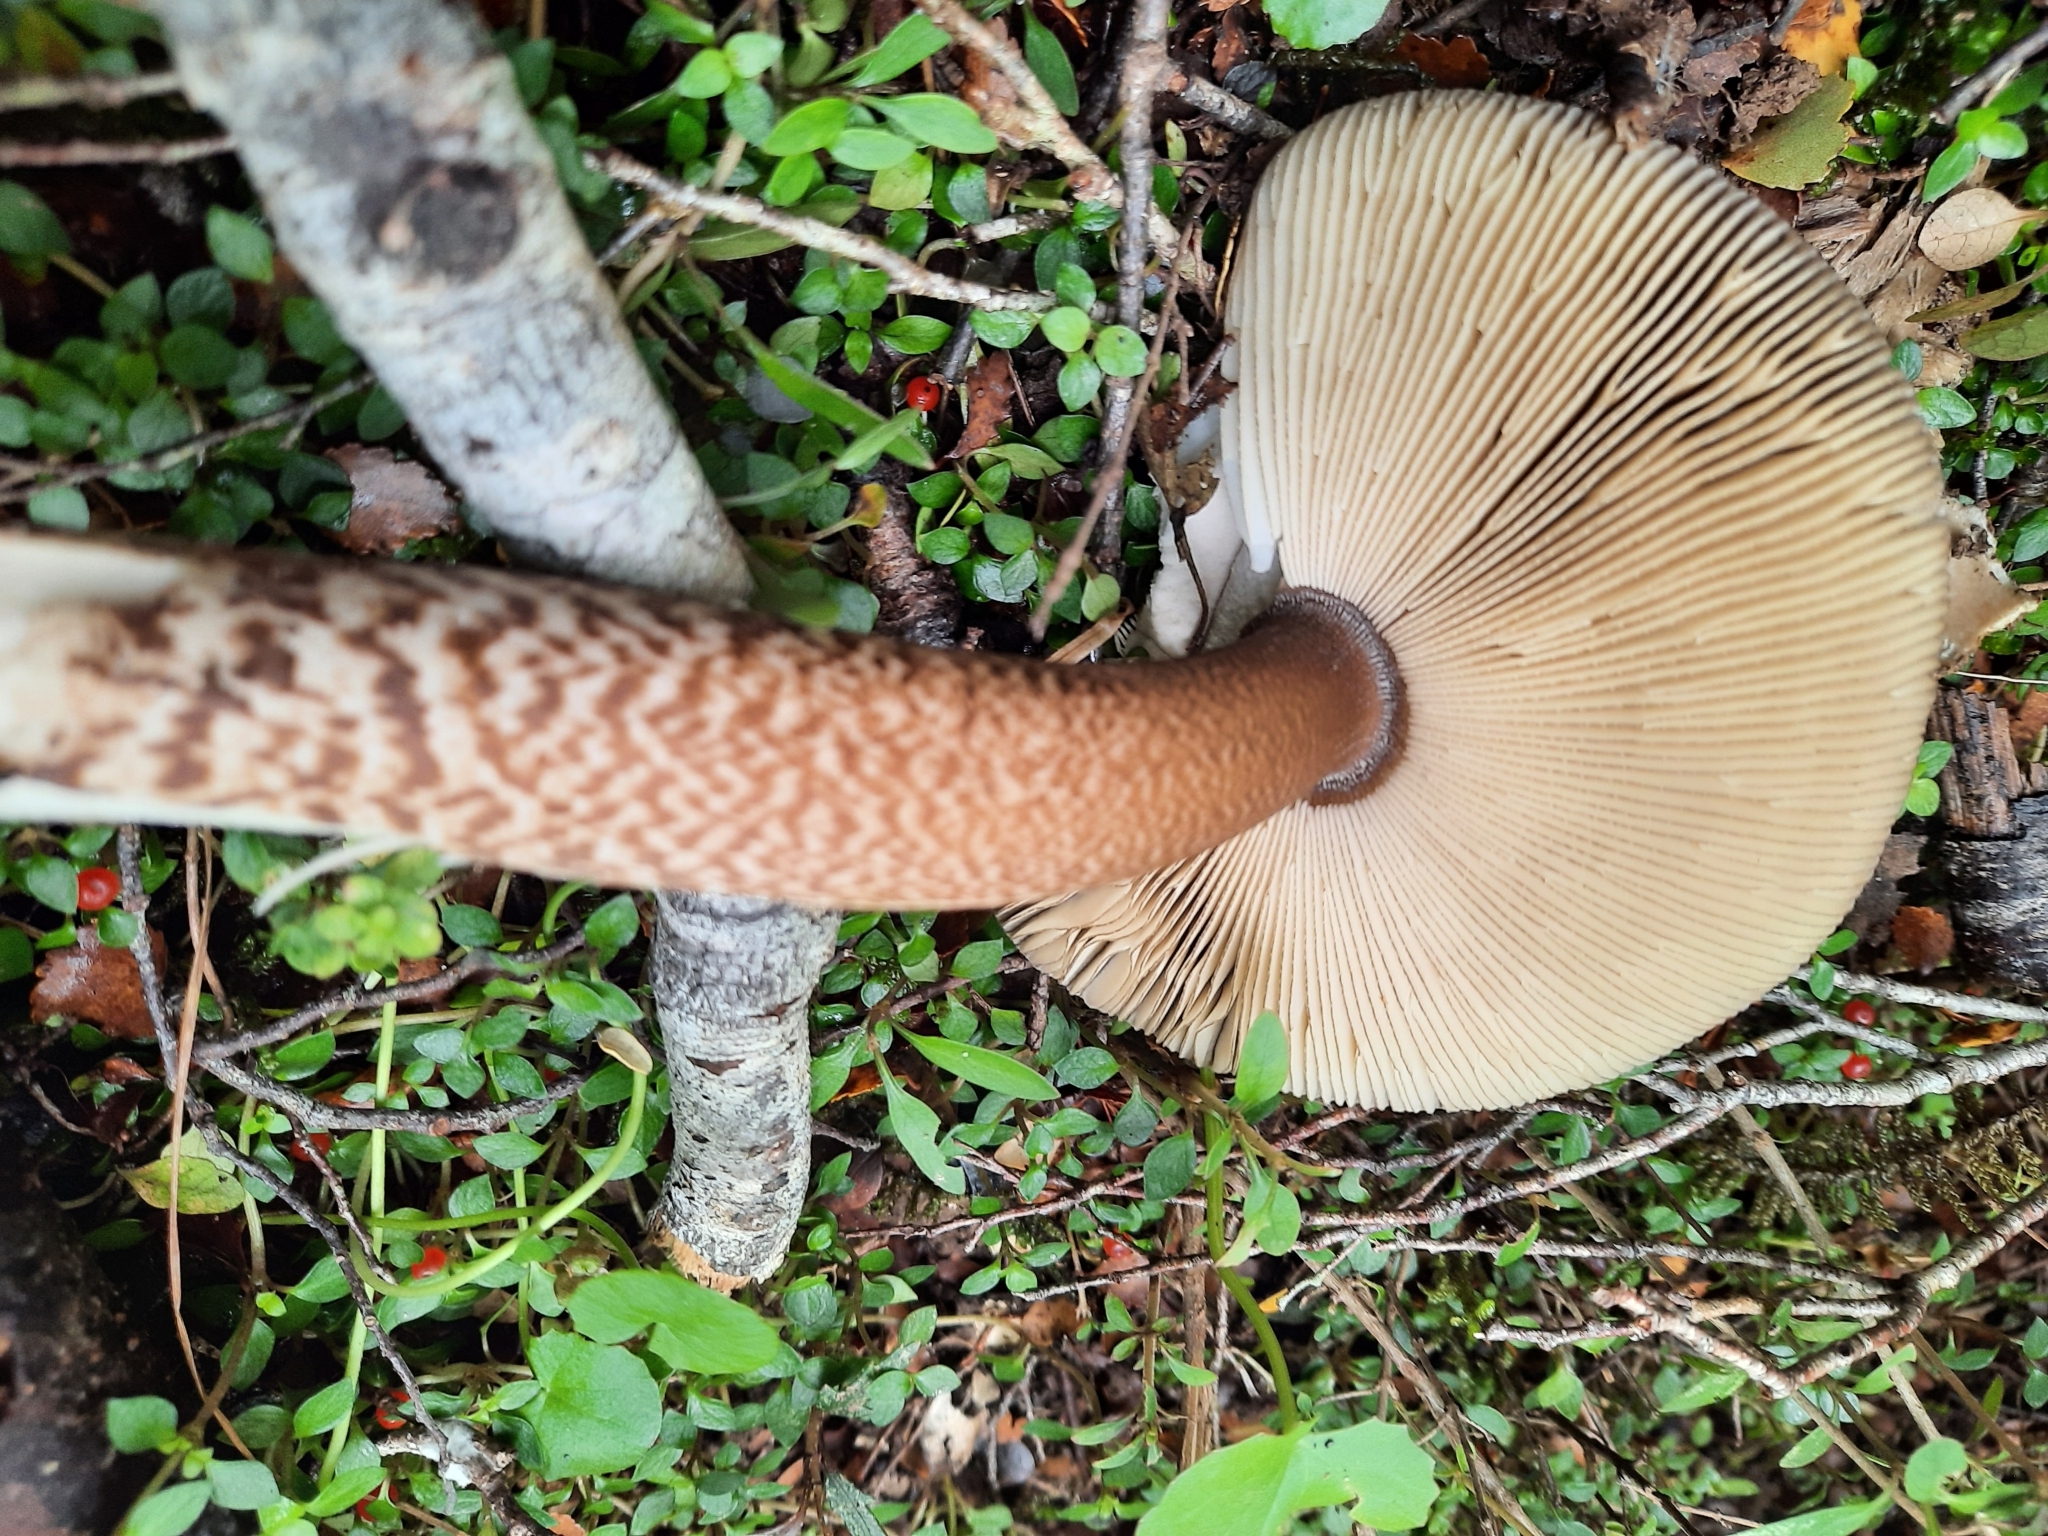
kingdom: Fungi
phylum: Basidiomycota
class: Agaricomycetes
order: Agaricales
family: Amanitaceae
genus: Amanita
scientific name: Amanita pekeoides
